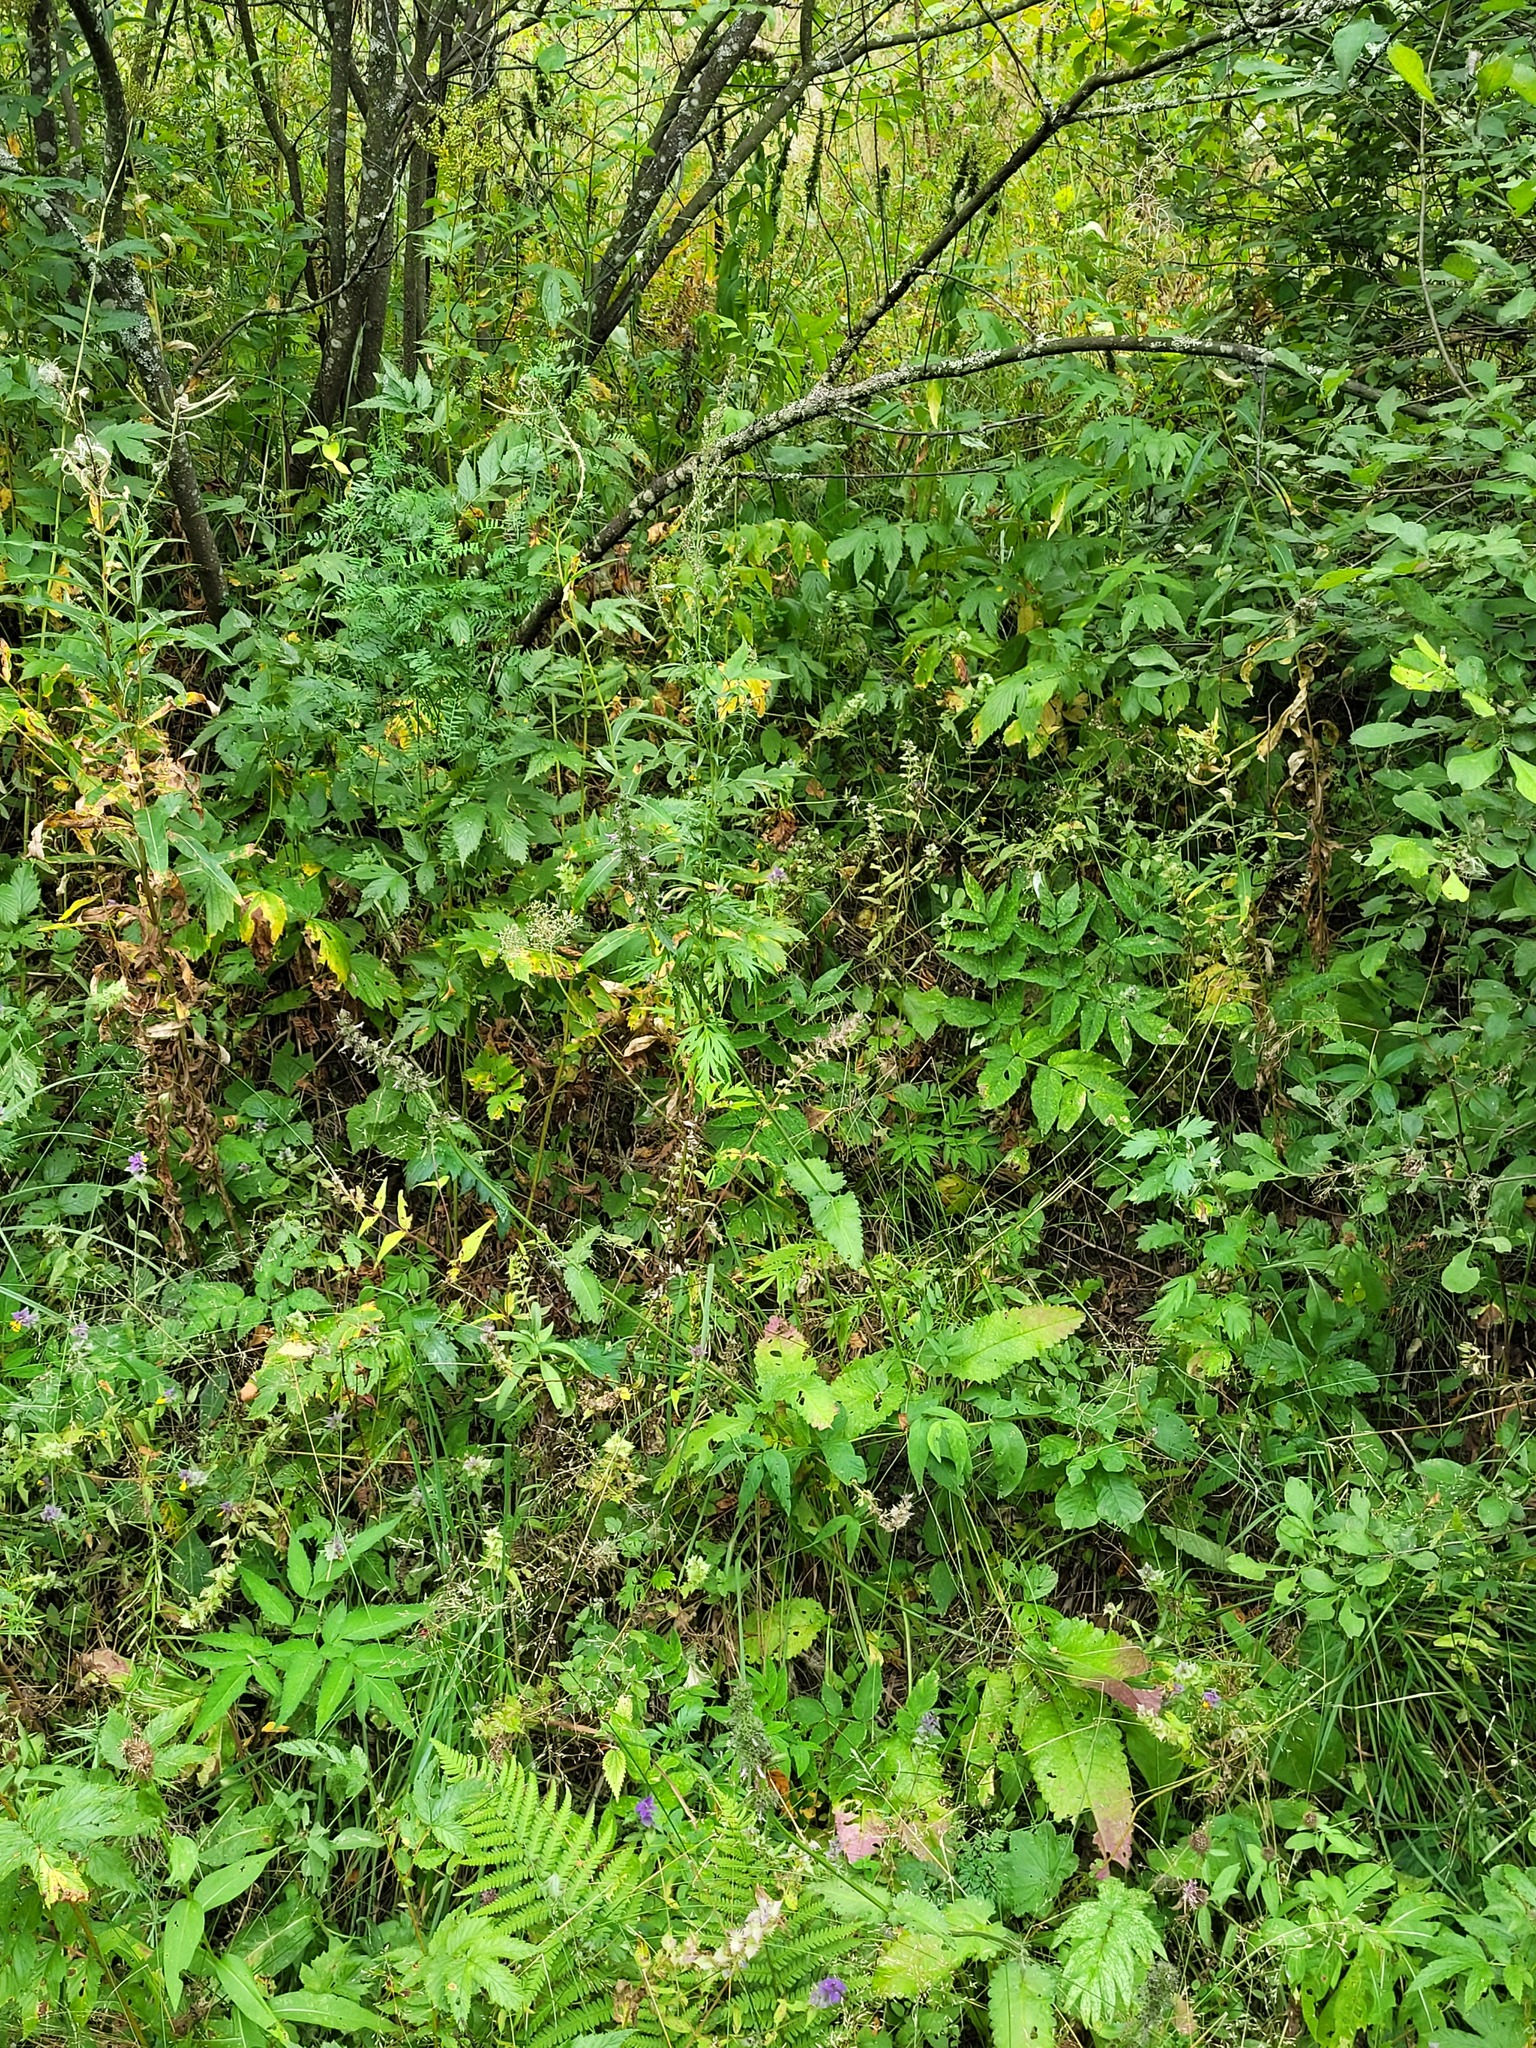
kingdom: Plantae
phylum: Tracheophyta
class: Magnoliopsida
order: Lamiales
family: Lamiaceae
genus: Betonica
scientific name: Betonica officinalis
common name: Bishop's-wort
